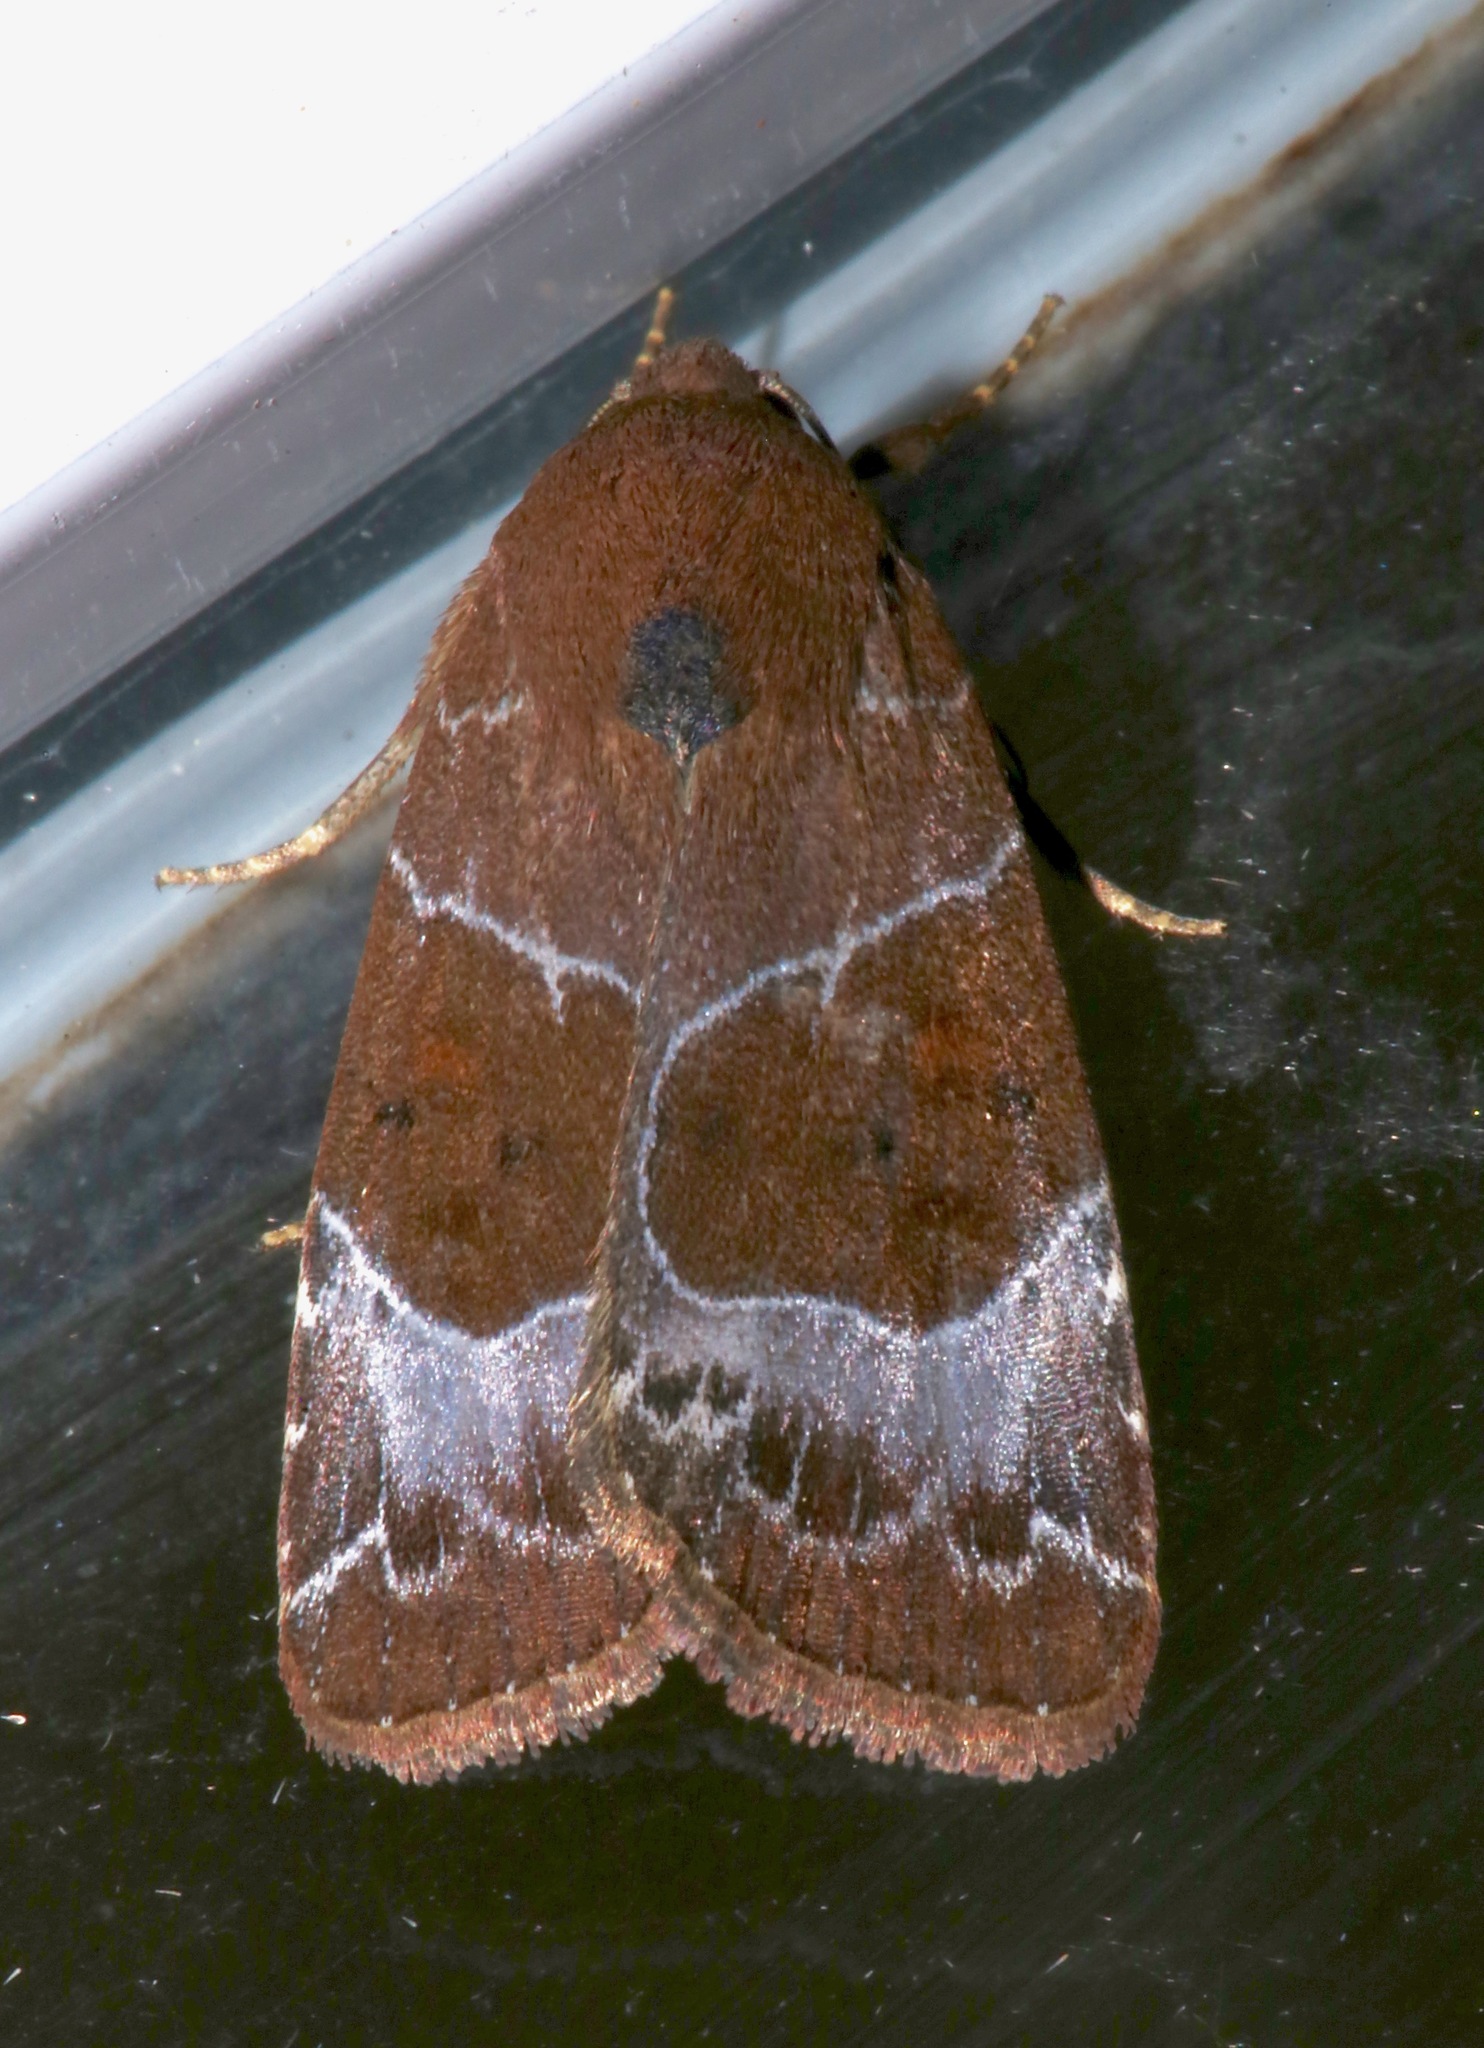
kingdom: Animalia
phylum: Arthropoda
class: Insecta
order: Lepidoptera
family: Noctuidae
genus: Hampsonodes
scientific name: Hampsonodes mastoides
